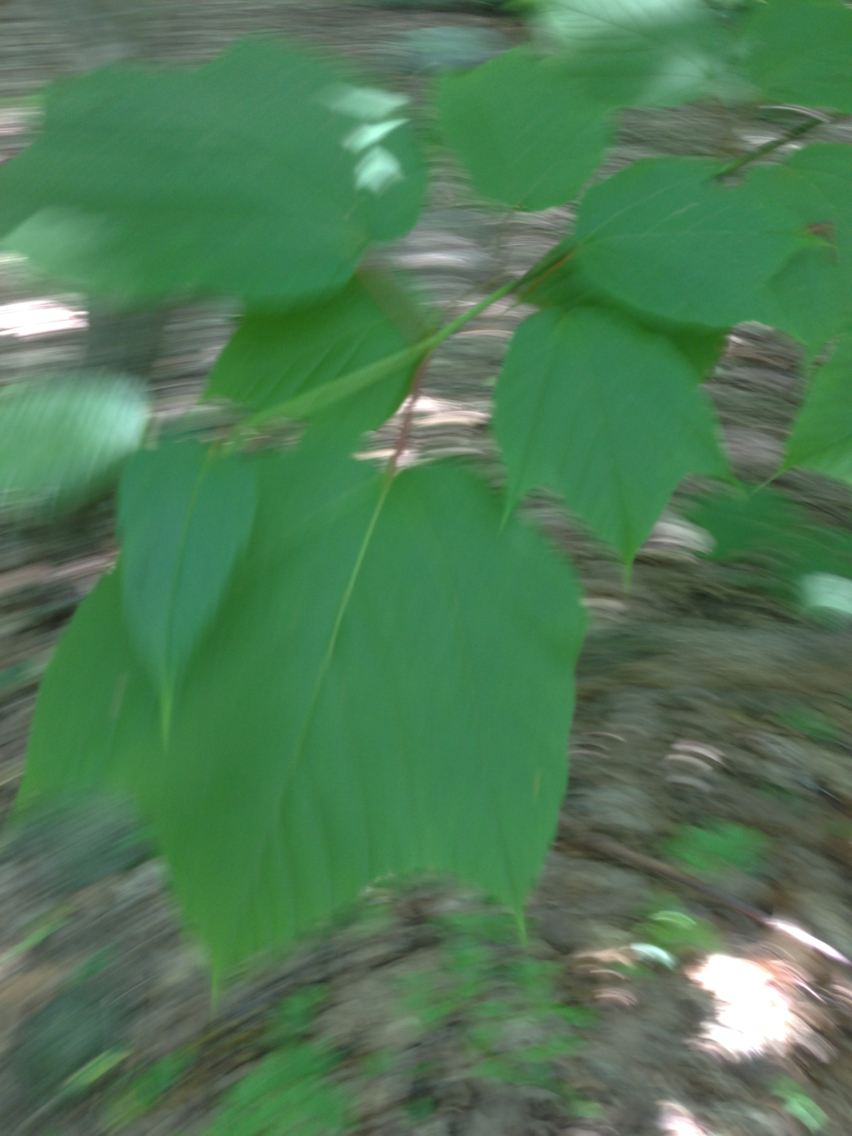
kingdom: Plantae
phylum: Tracheophyta
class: Magnoliopsida
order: Sapindales
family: Sapindaceae
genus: Acer
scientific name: Acer pensylvanicum
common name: Moosewood
